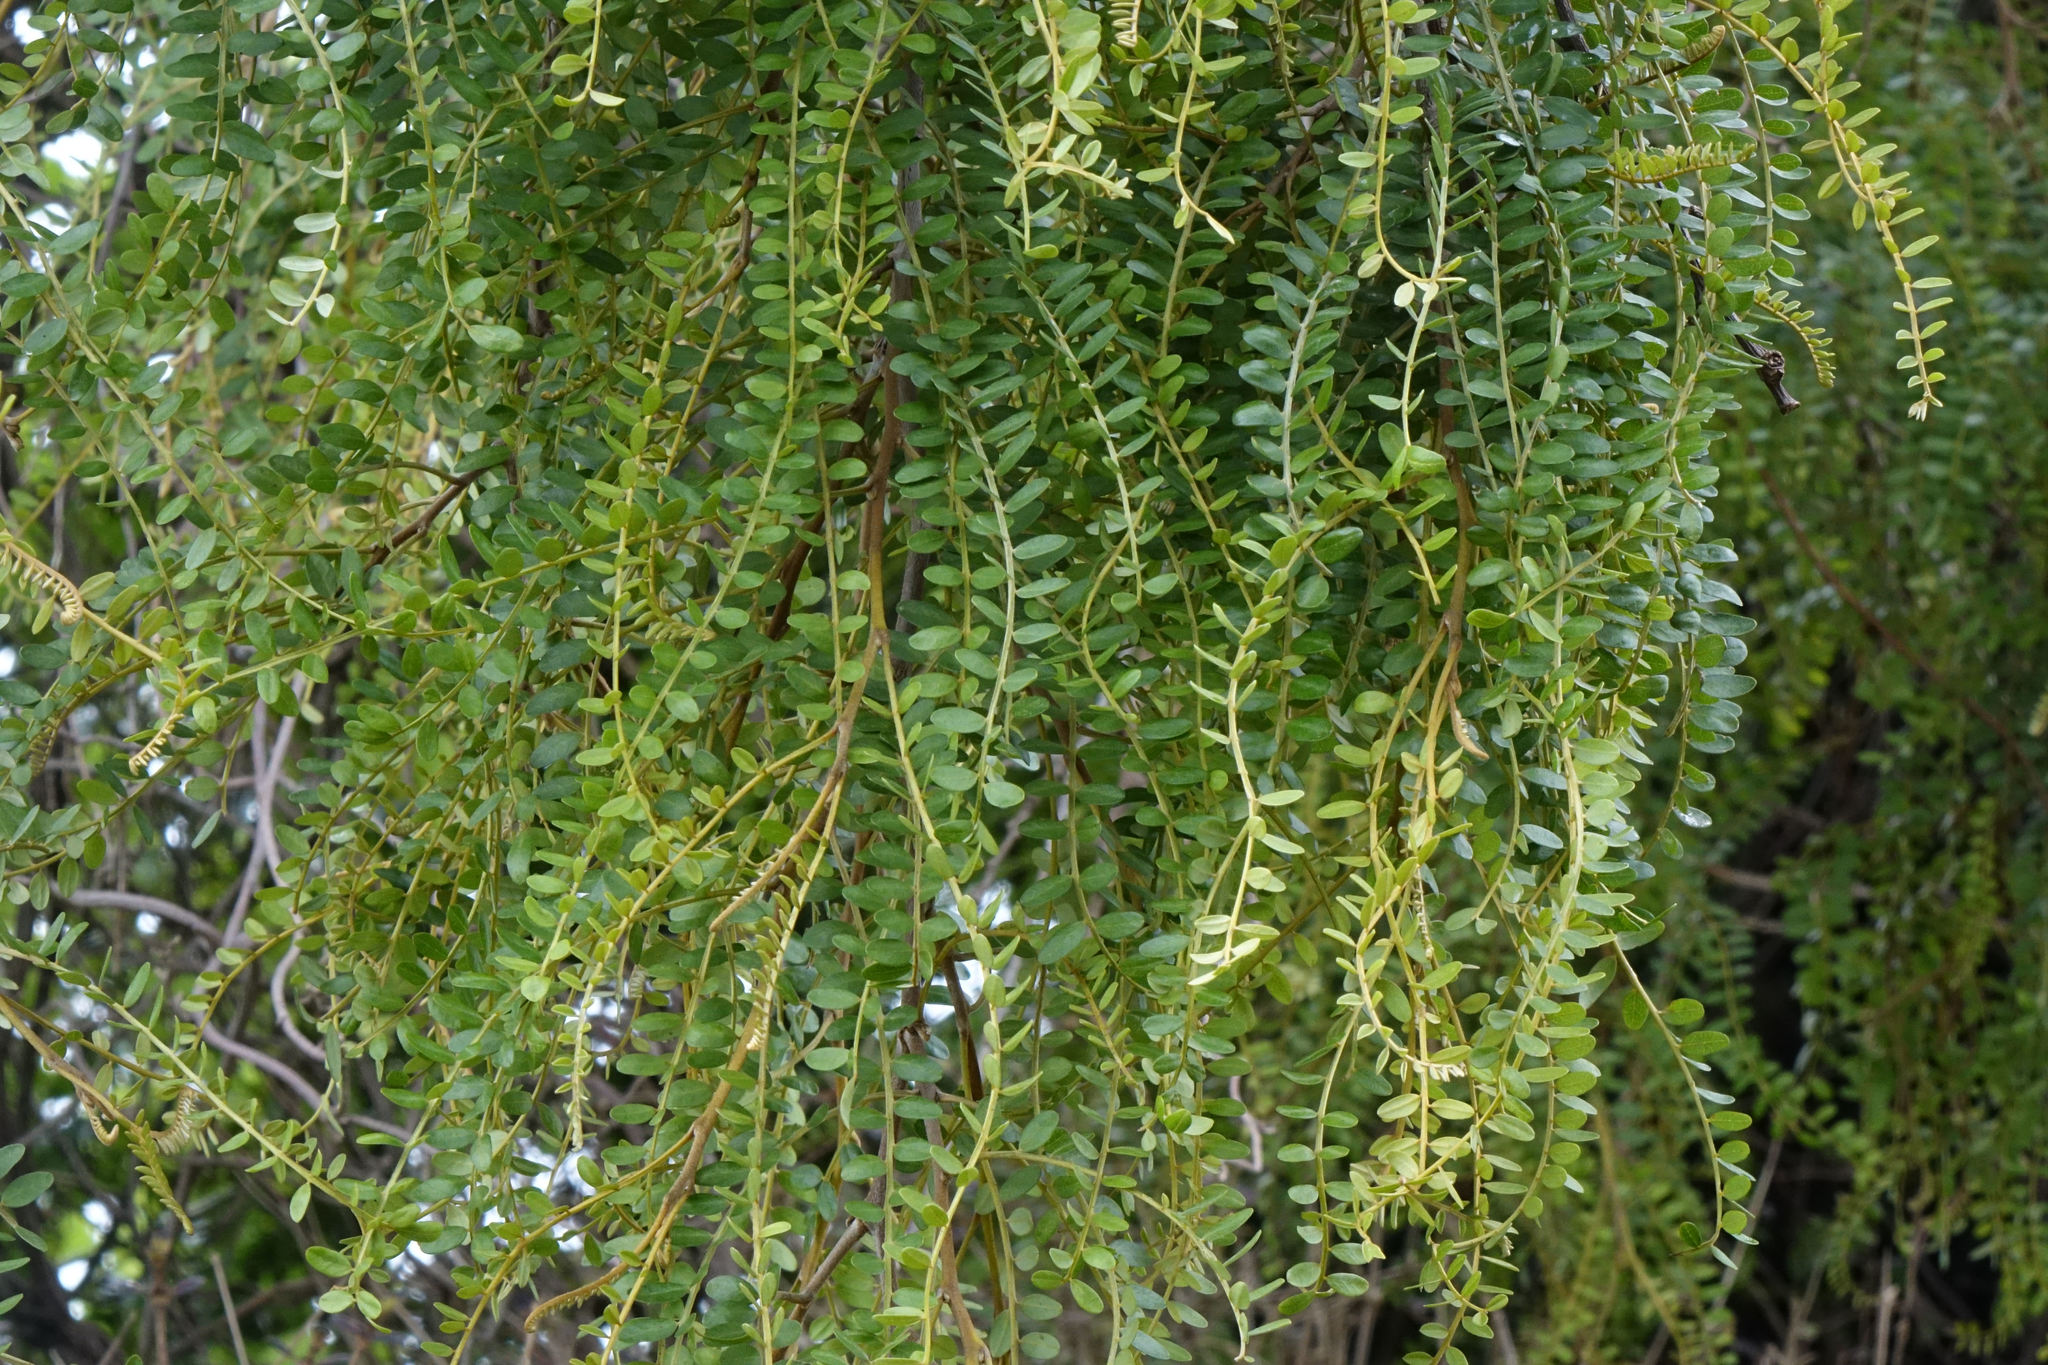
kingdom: Plantae
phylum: Tracheophyta
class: Magnoliopsida
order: Fabales
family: Fabaceae
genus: Sophora
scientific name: Sophora microphylla
